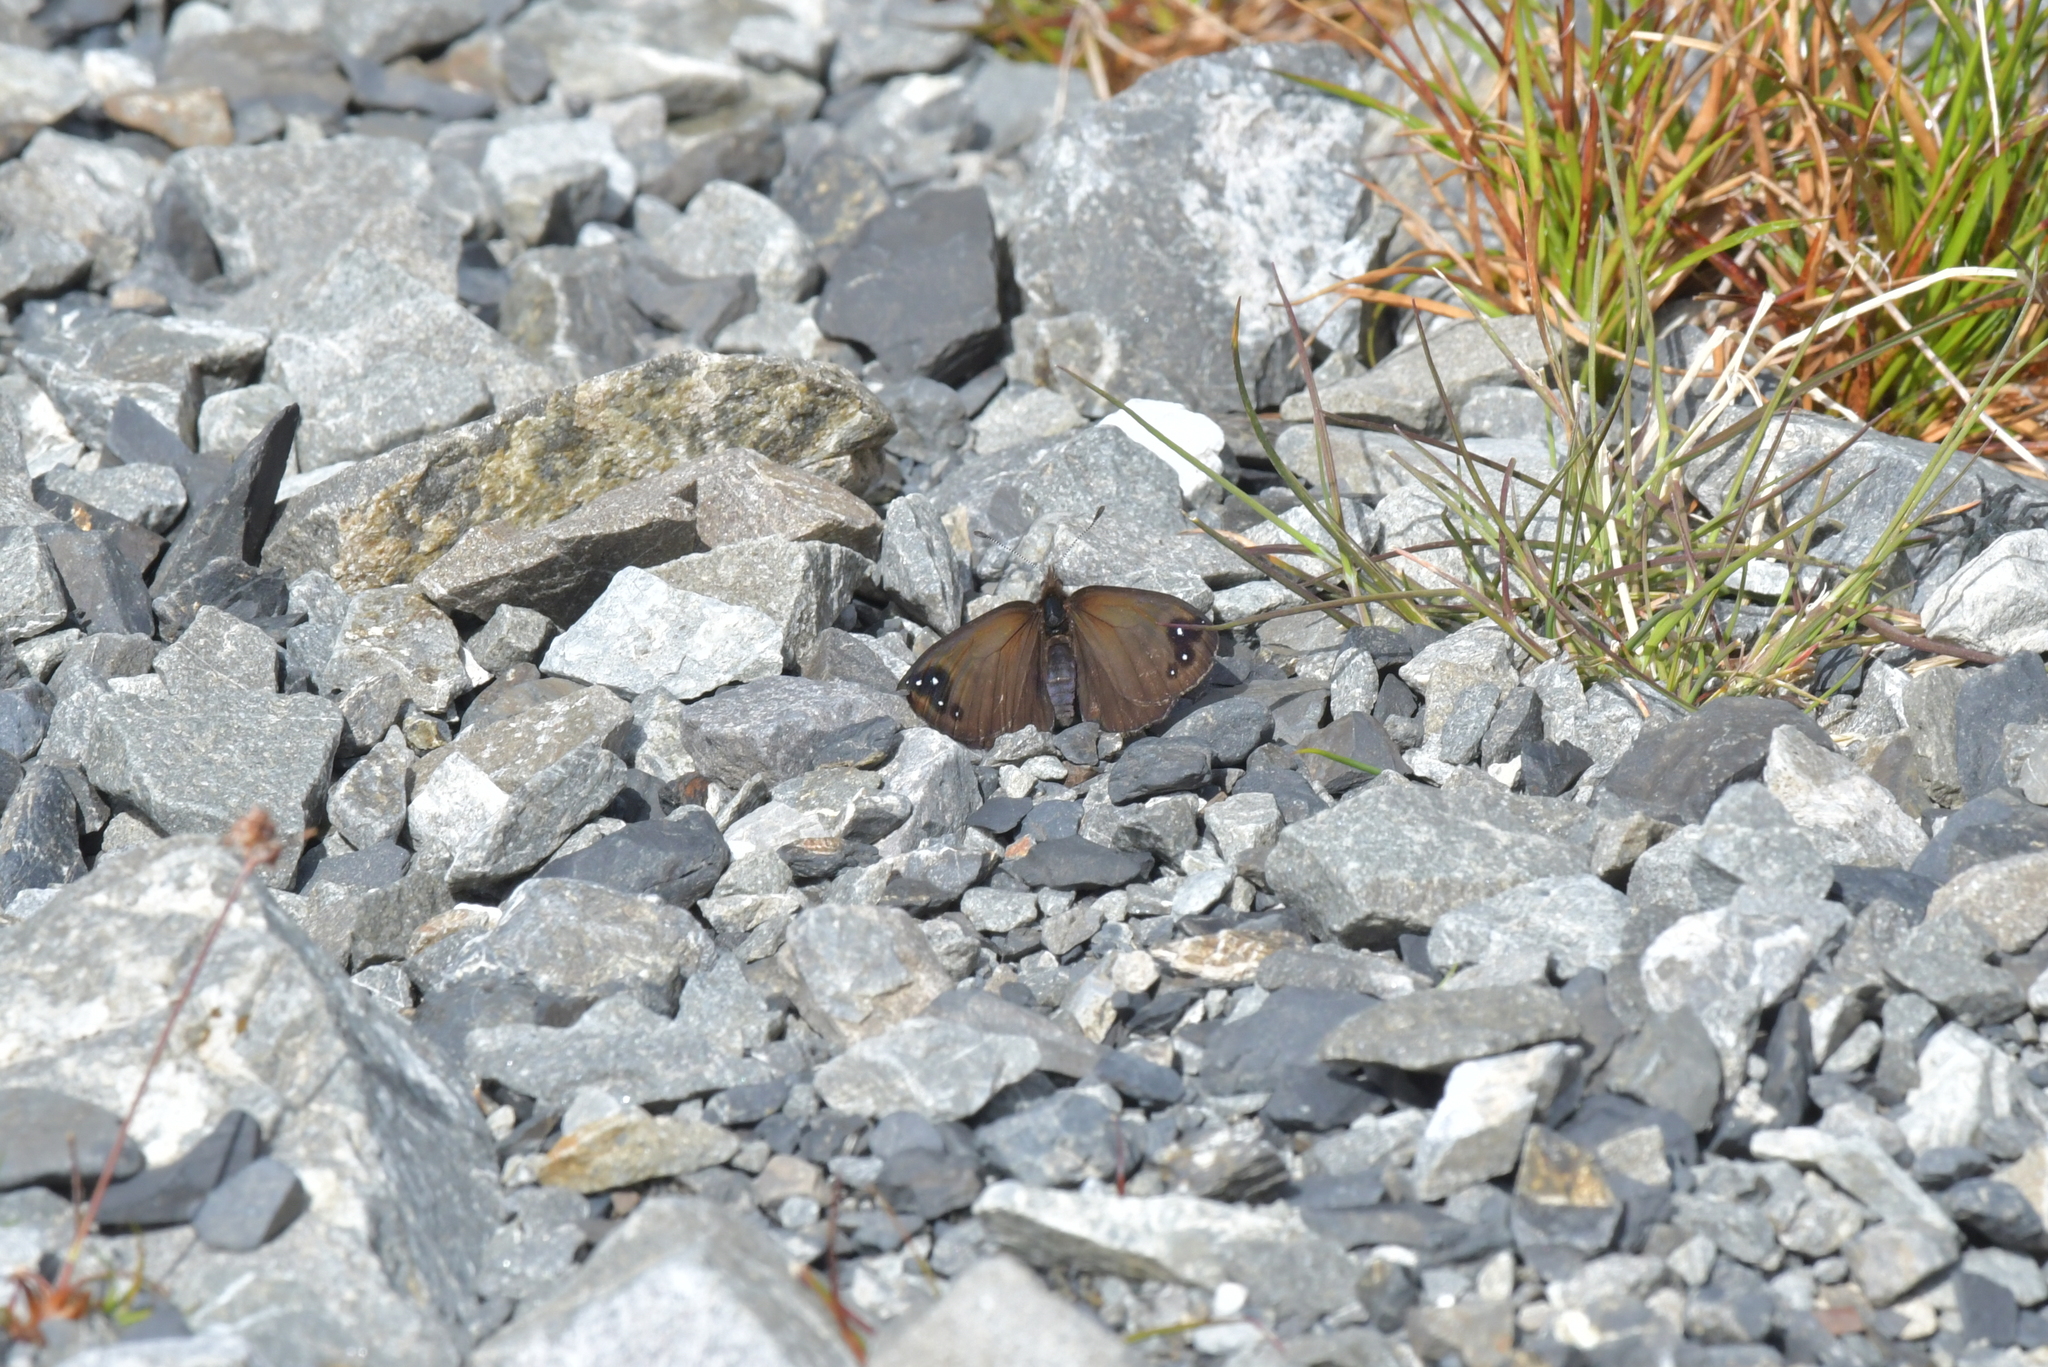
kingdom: Animalia
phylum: Arthropoda
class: Insecta
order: Lepidoptera
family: Nymphalidae
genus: Erebia
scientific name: Erebia Percnodaimon merula
